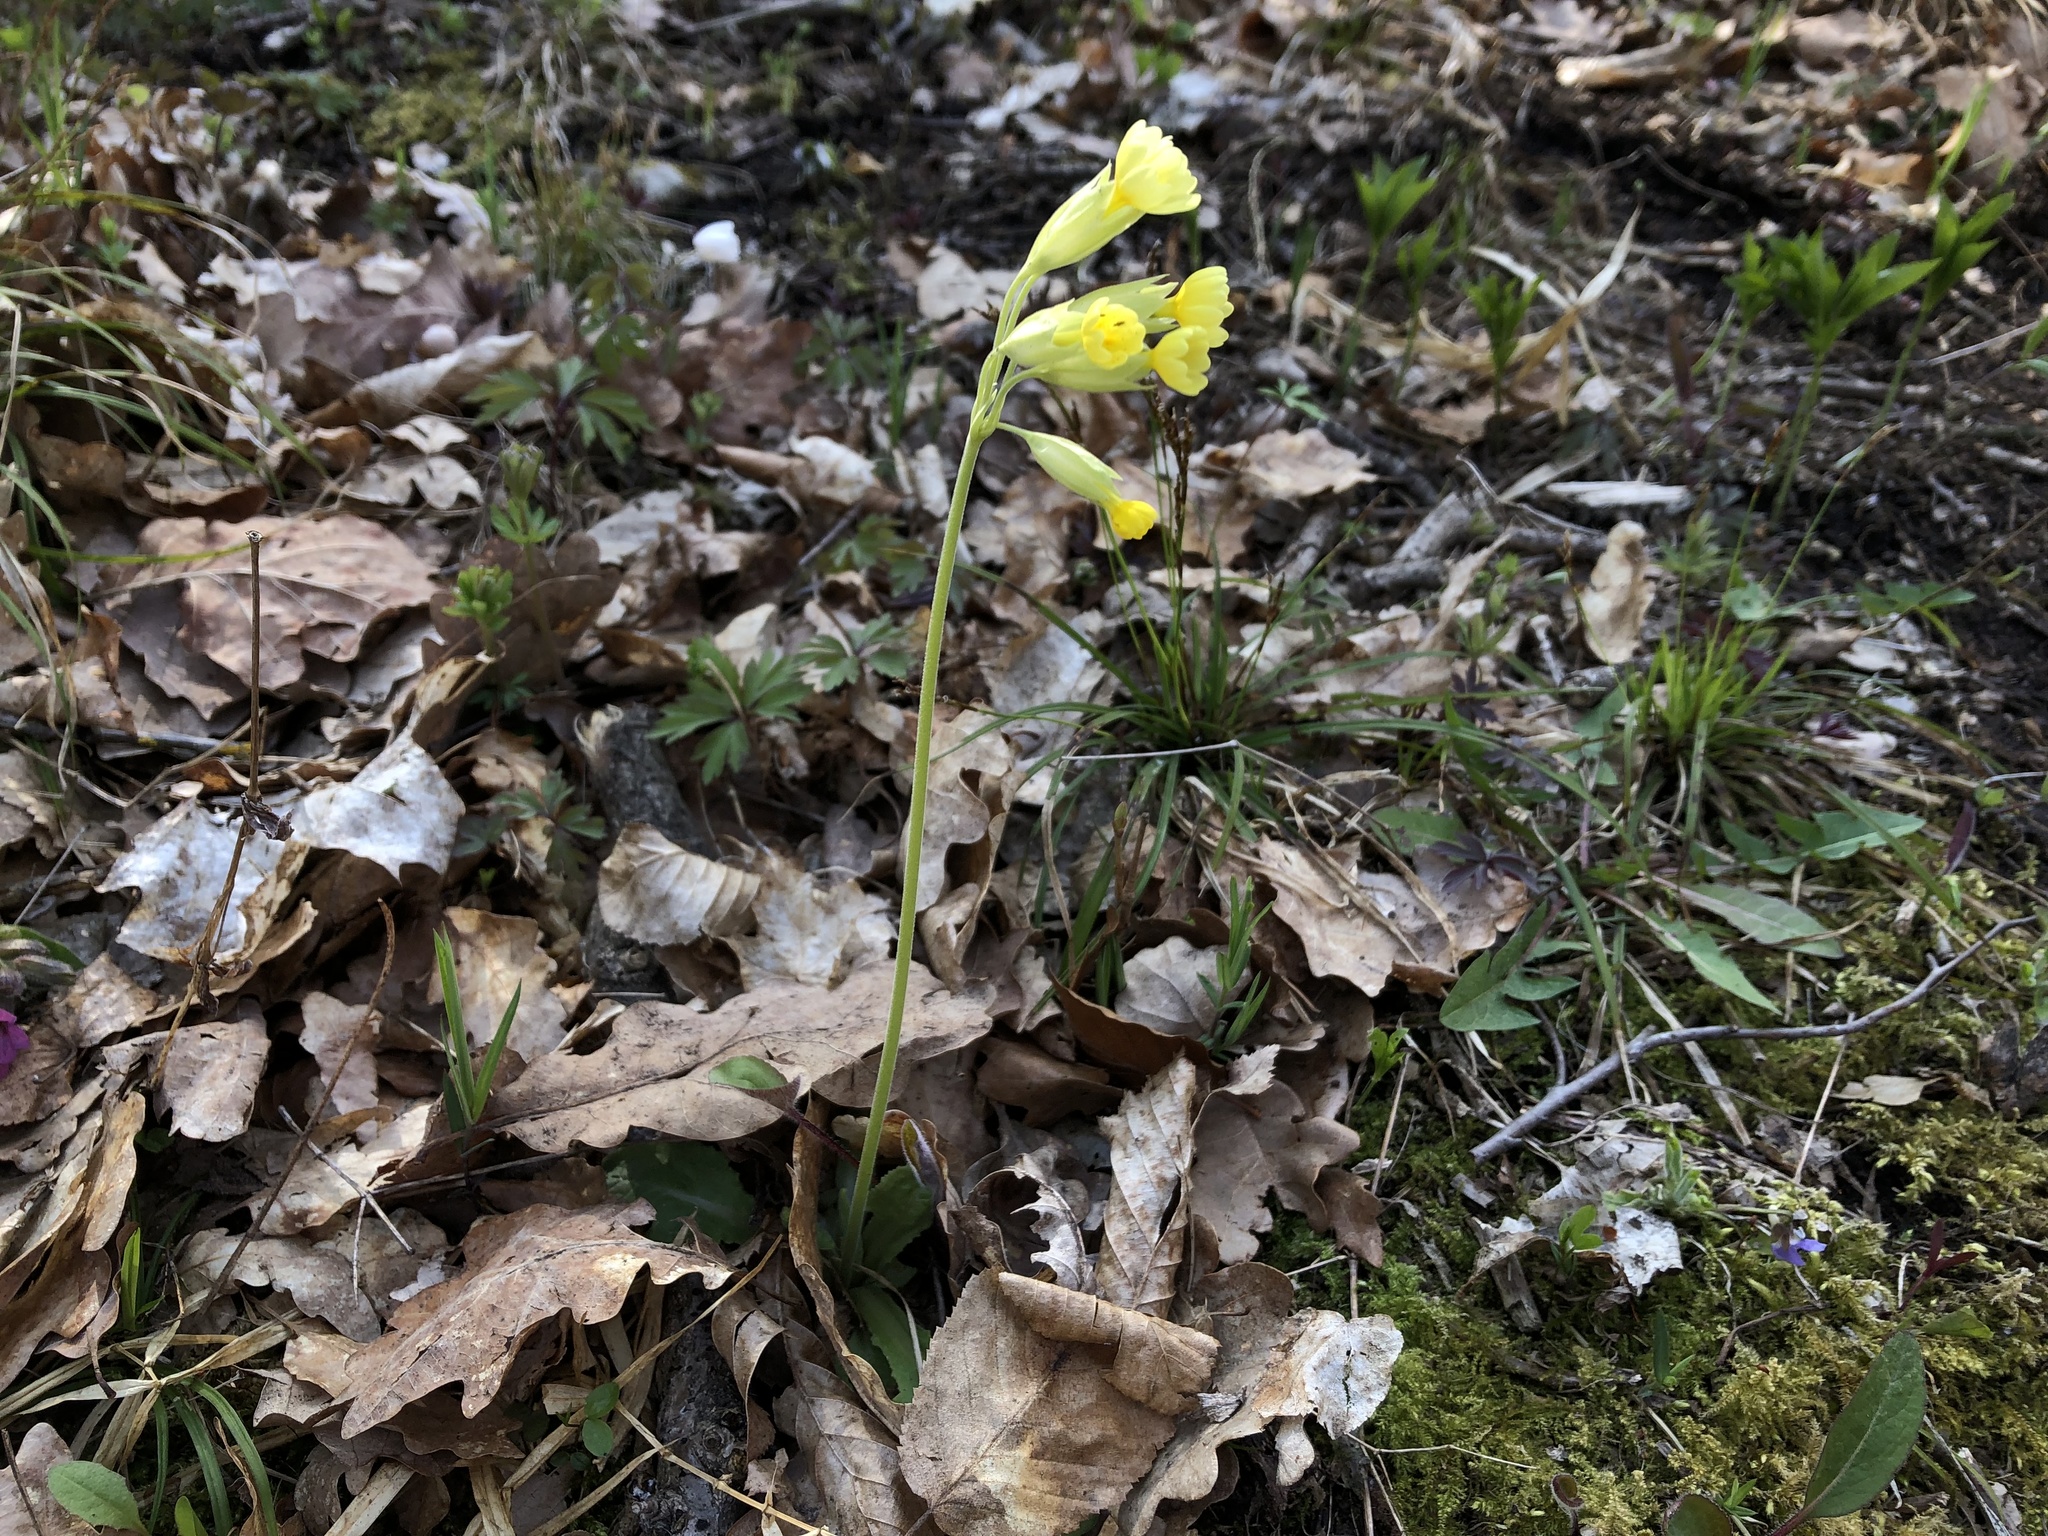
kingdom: Plantae
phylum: Tracheophyta
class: Magnoliopsida
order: Ericales
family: Primulaceae
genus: Primula
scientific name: Primula veris
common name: Cowslip
